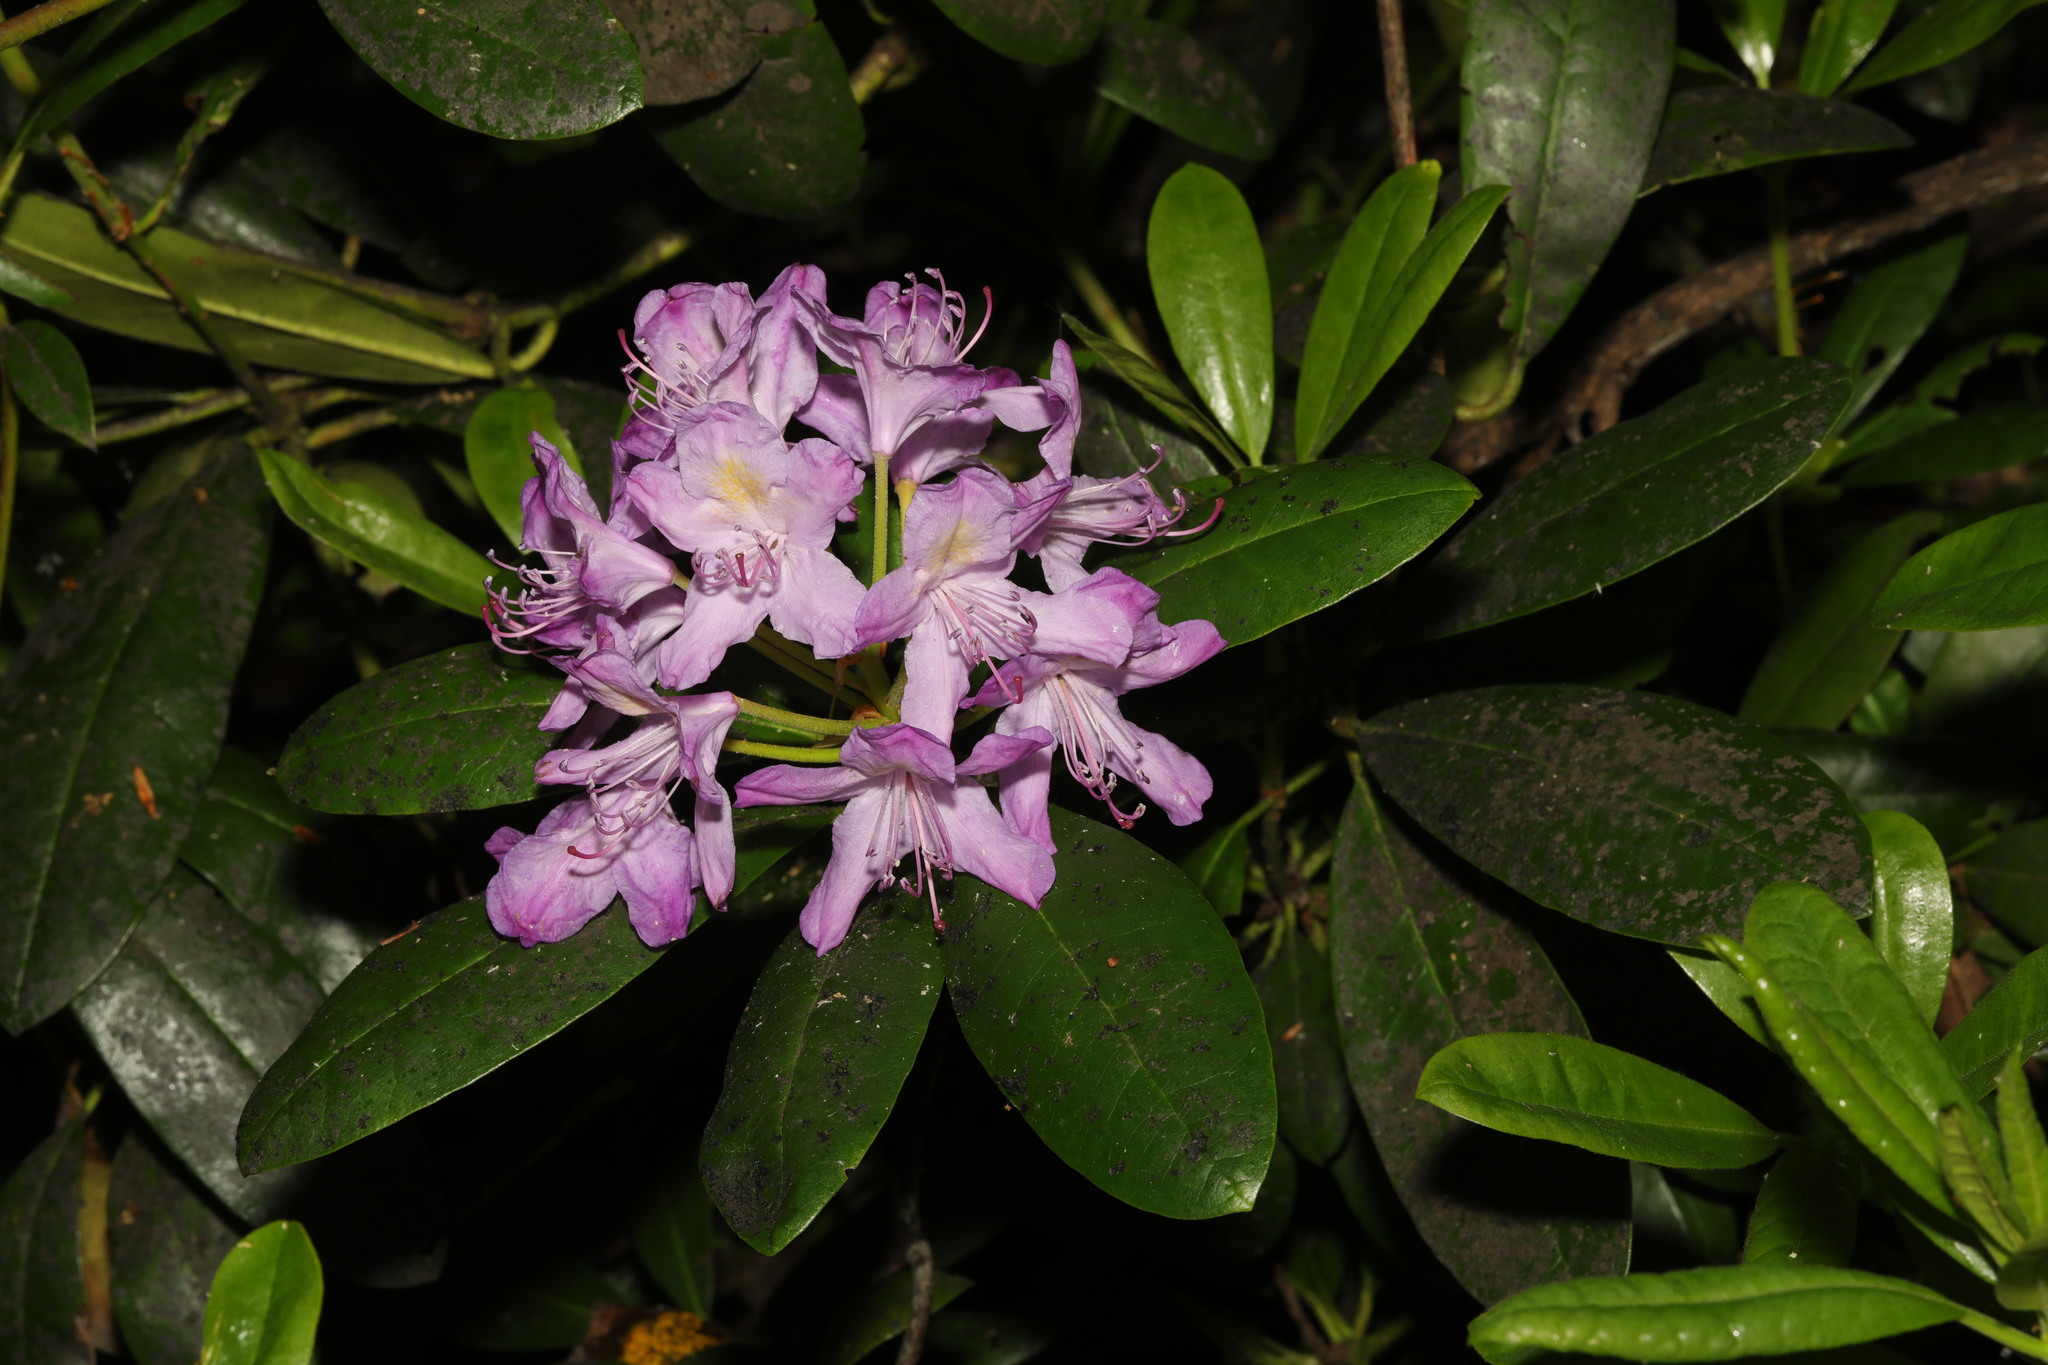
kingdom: Plantae
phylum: Tracheophyta
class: Magnoliopsida
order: Ericales
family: Ericaceae
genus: Rhododendron
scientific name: Rhododendron ponticum
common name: Rhododendron
